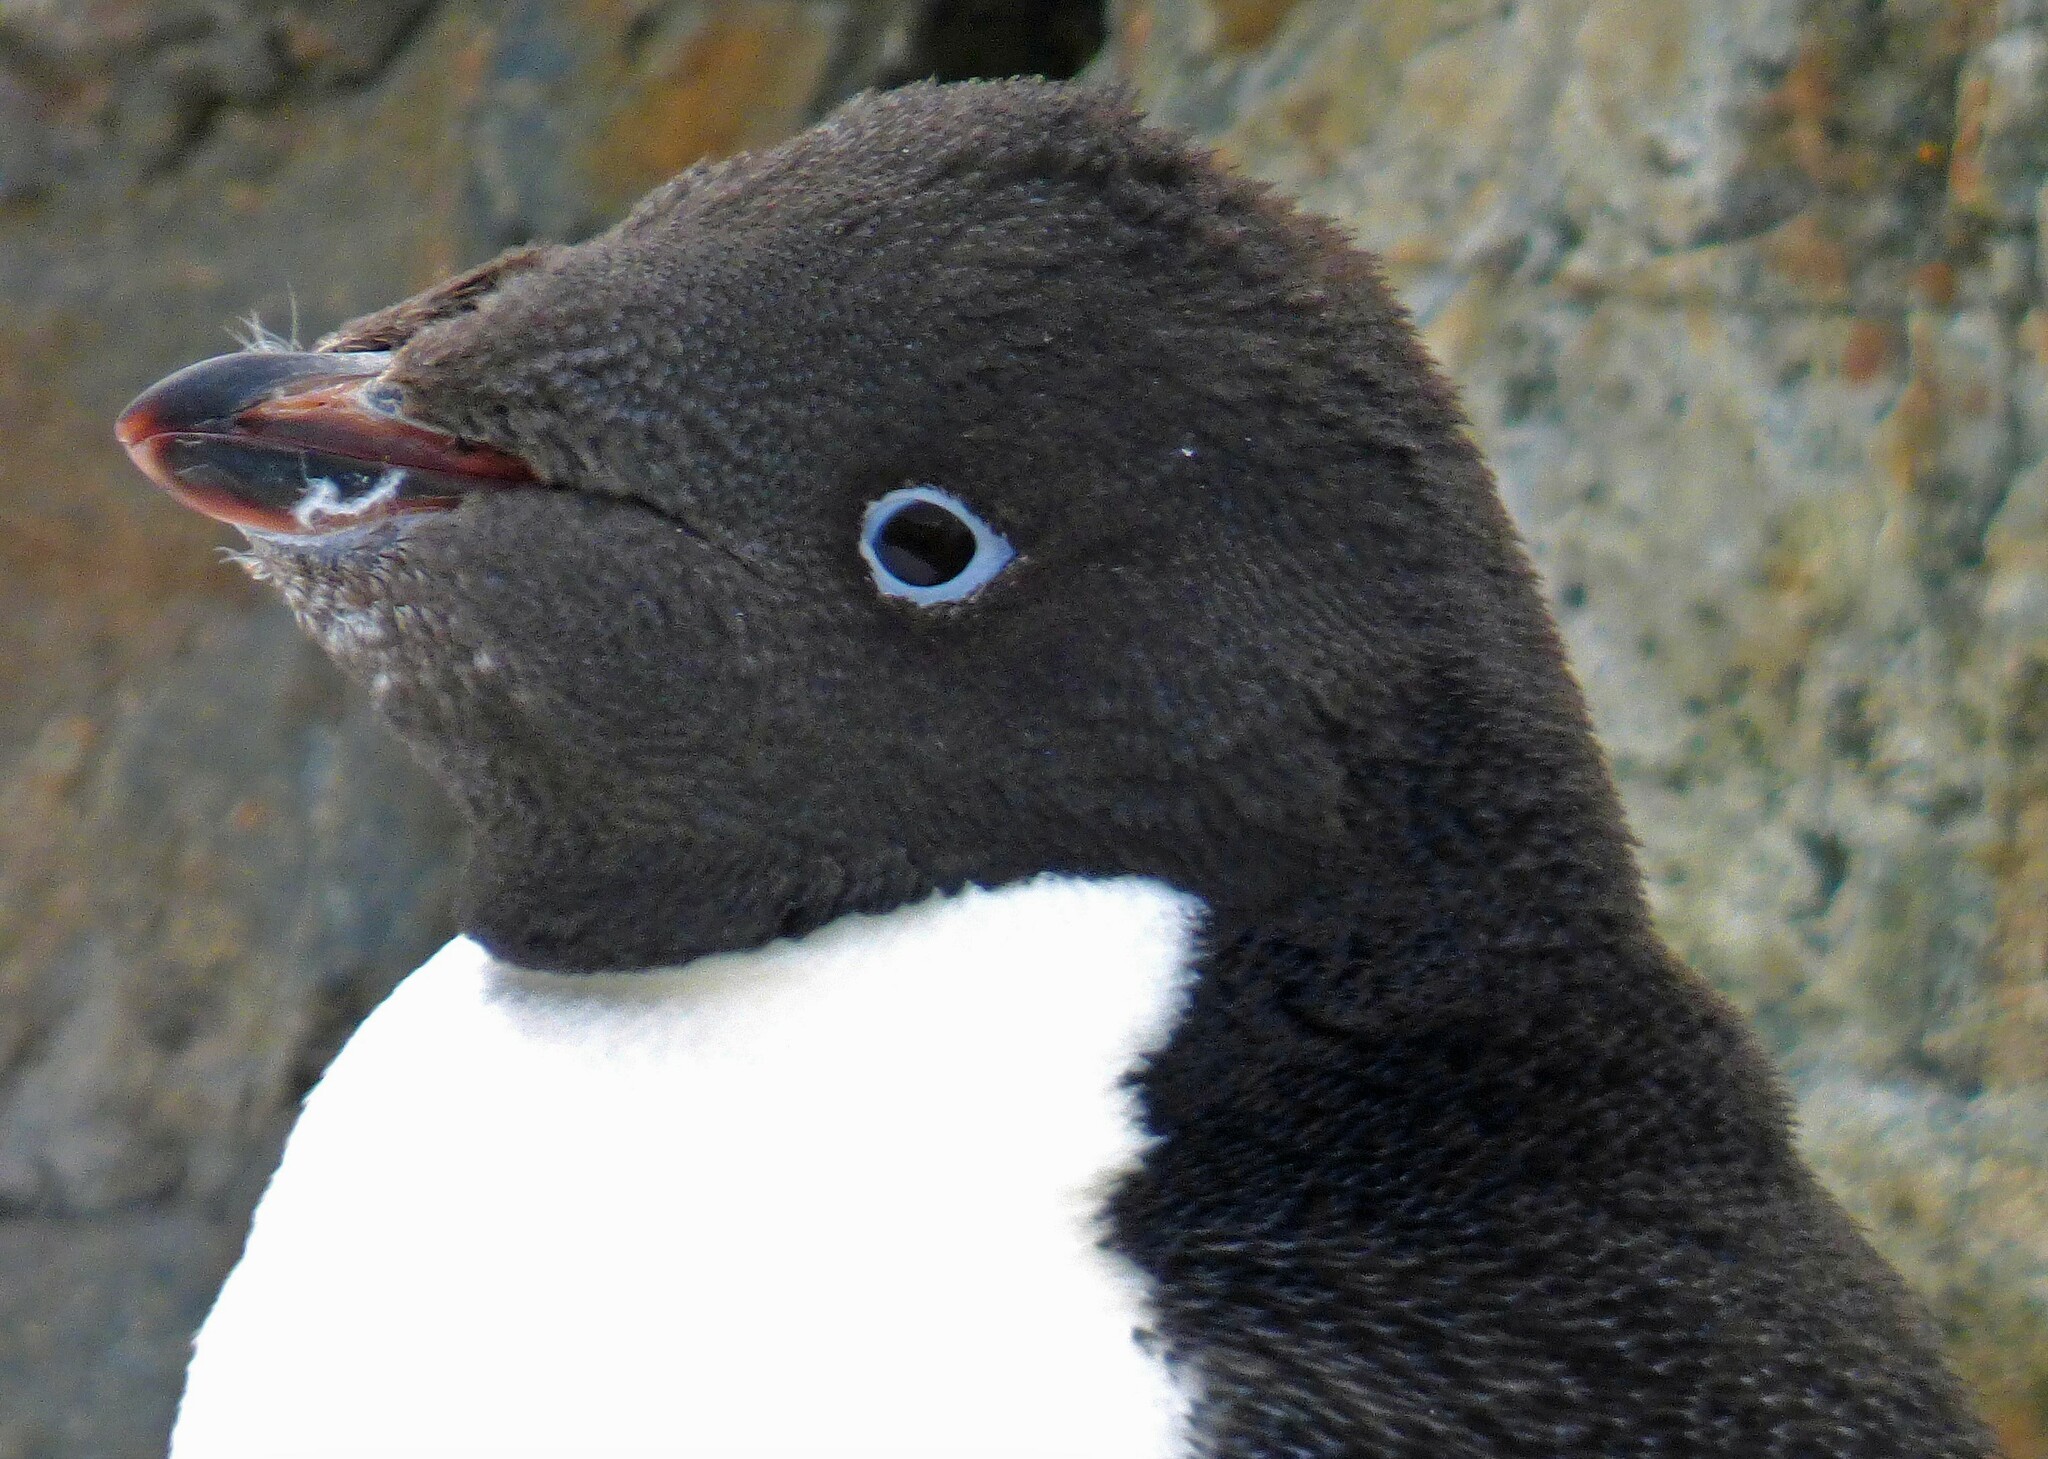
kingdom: Animalia
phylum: Chordata
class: Aves
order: Sphenisciformes
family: Spheniscidae
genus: Pygoscelis
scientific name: Pygoscelis adeliae
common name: Adelie penguin
